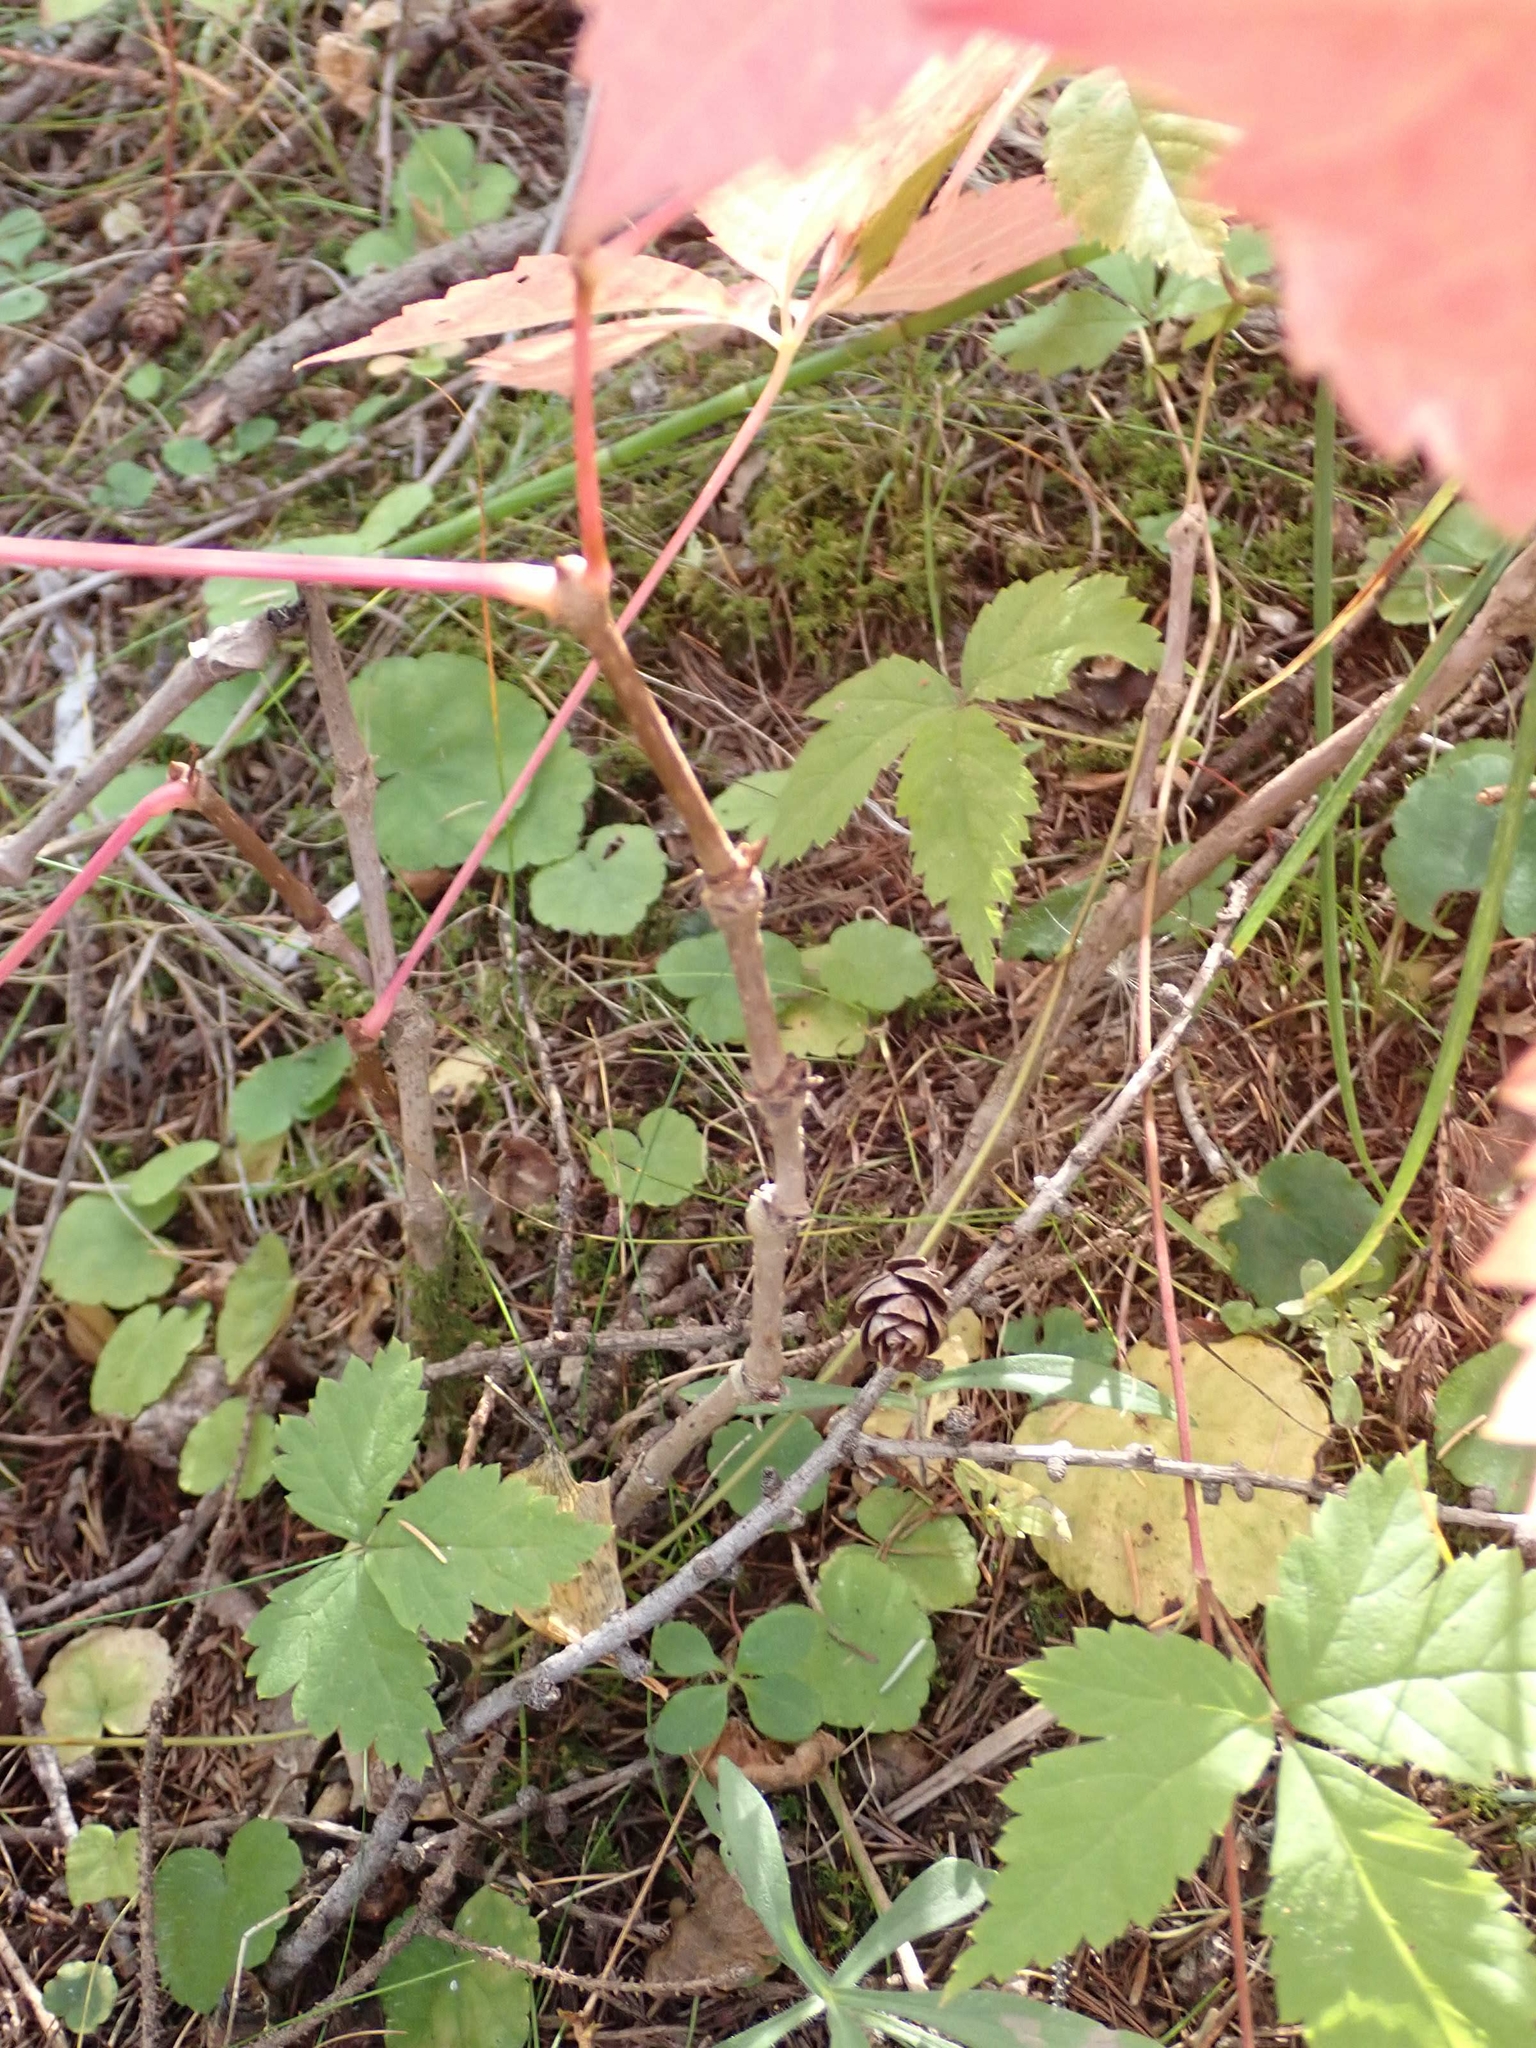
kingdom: Plantae
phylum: Tracheophyta
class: Magnoliopsida
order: Vitales
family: Vitaceae
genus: Parthenocissus
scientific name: Parthenocissus inserta
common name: False virginia-creeper
